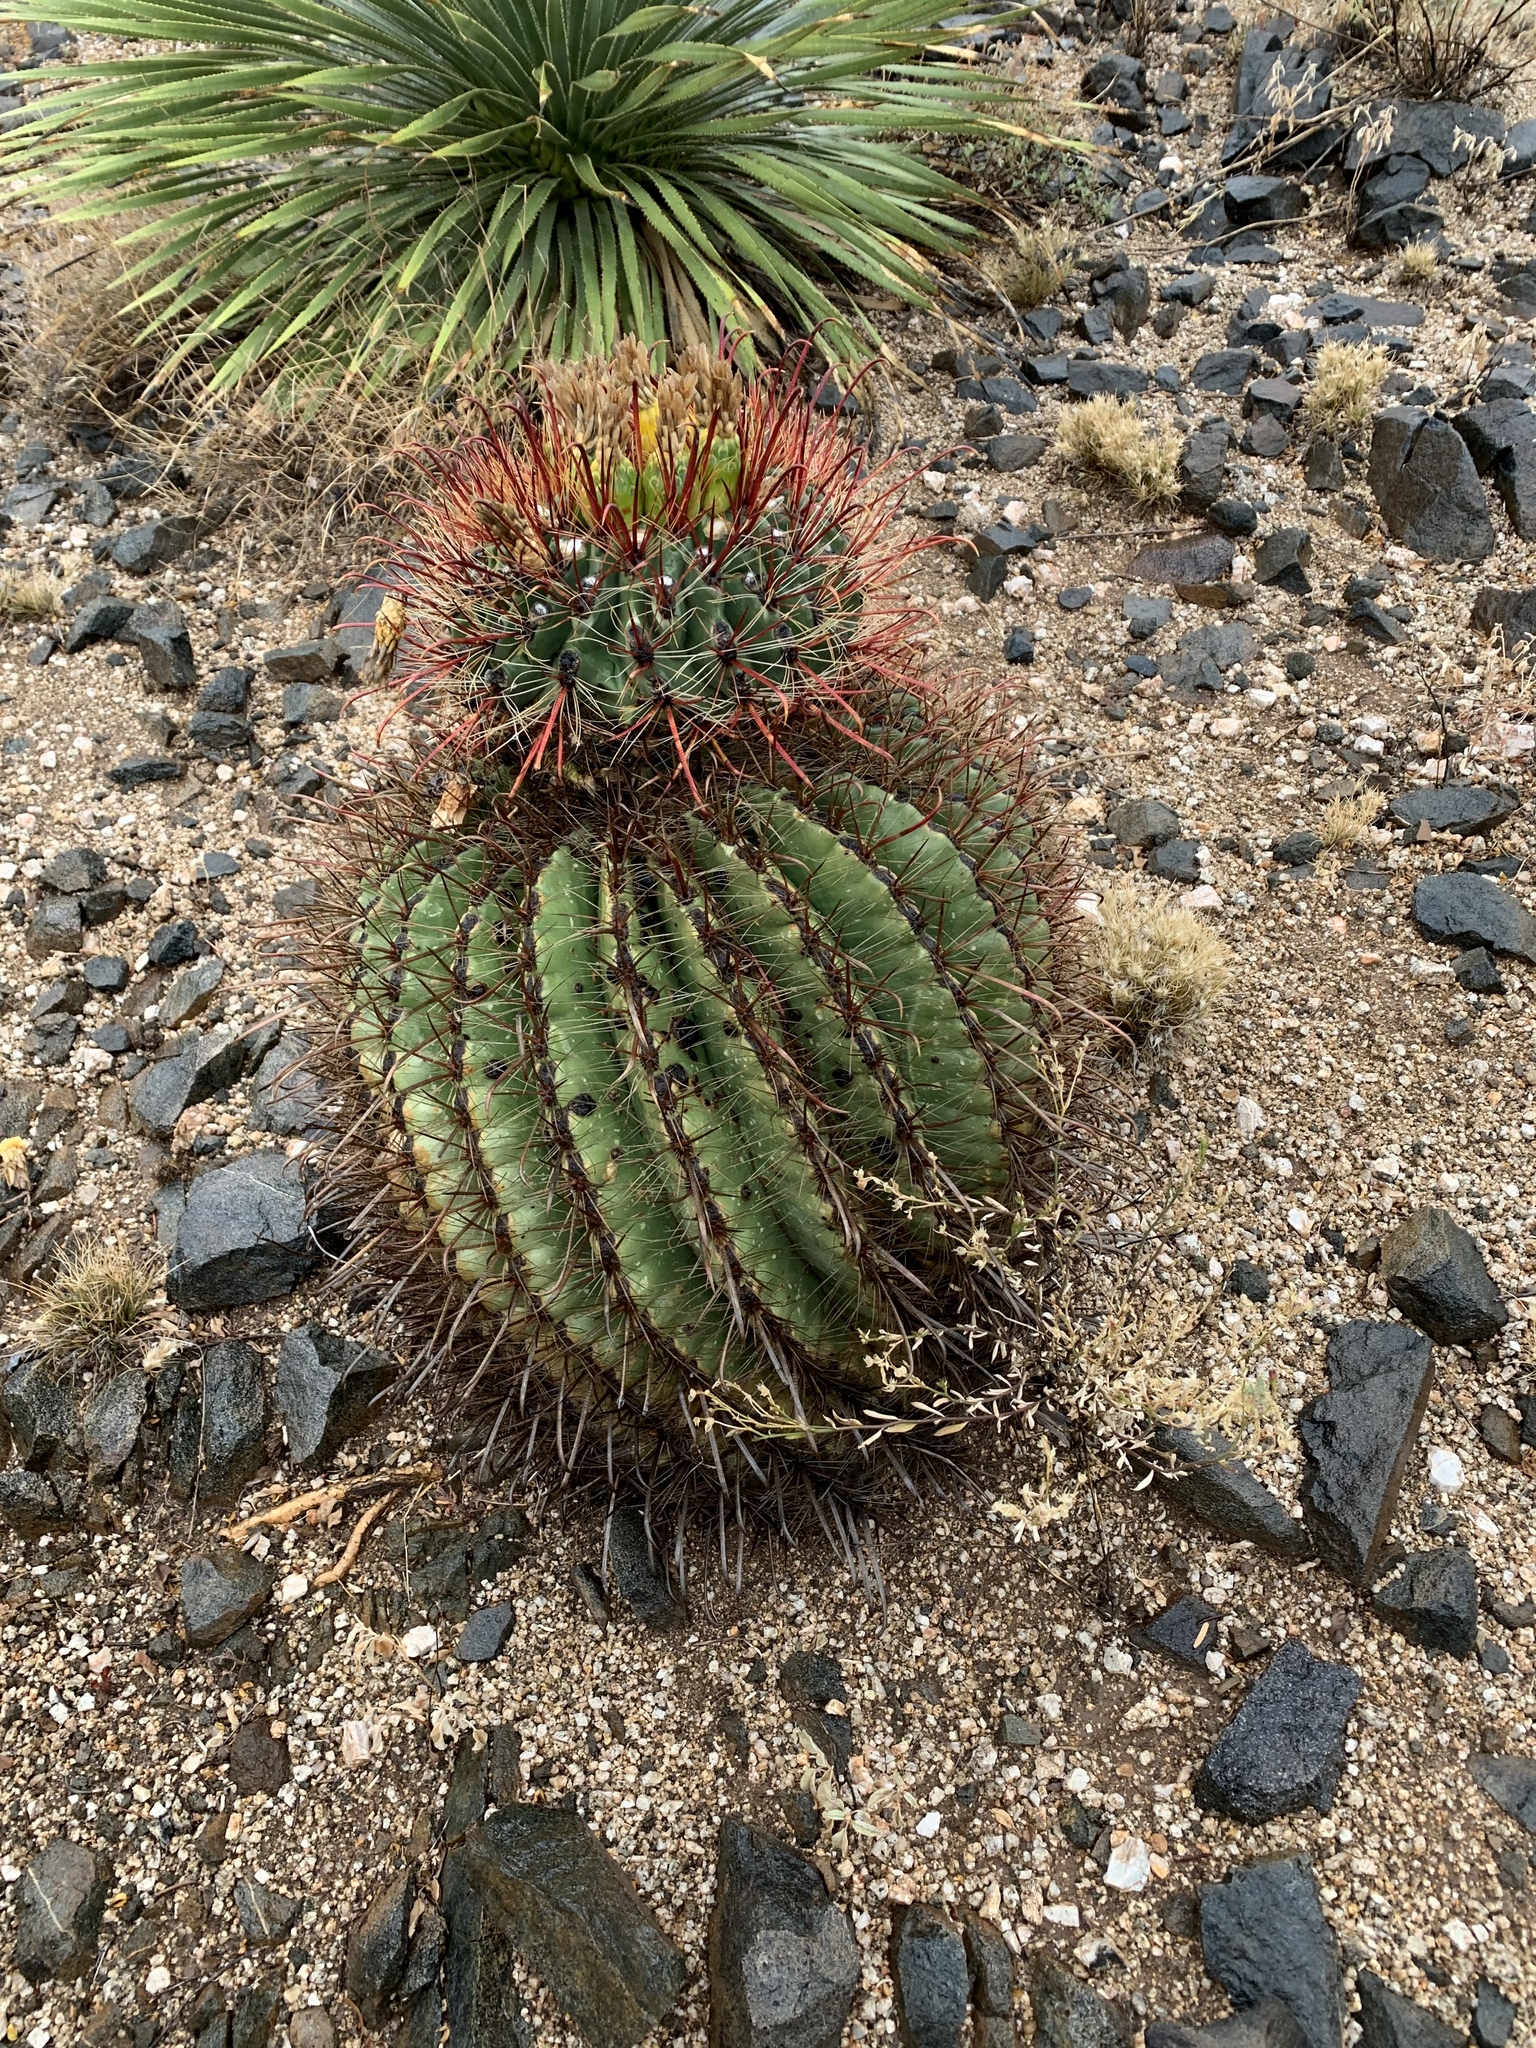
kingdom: Plantae
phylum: Tracheophyta
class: Magnoliopsida
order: Caryophyllales
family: Cactaceae
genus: Ferocactus
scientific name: Ferocactus wislizeni
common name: Candy barrel cactus
